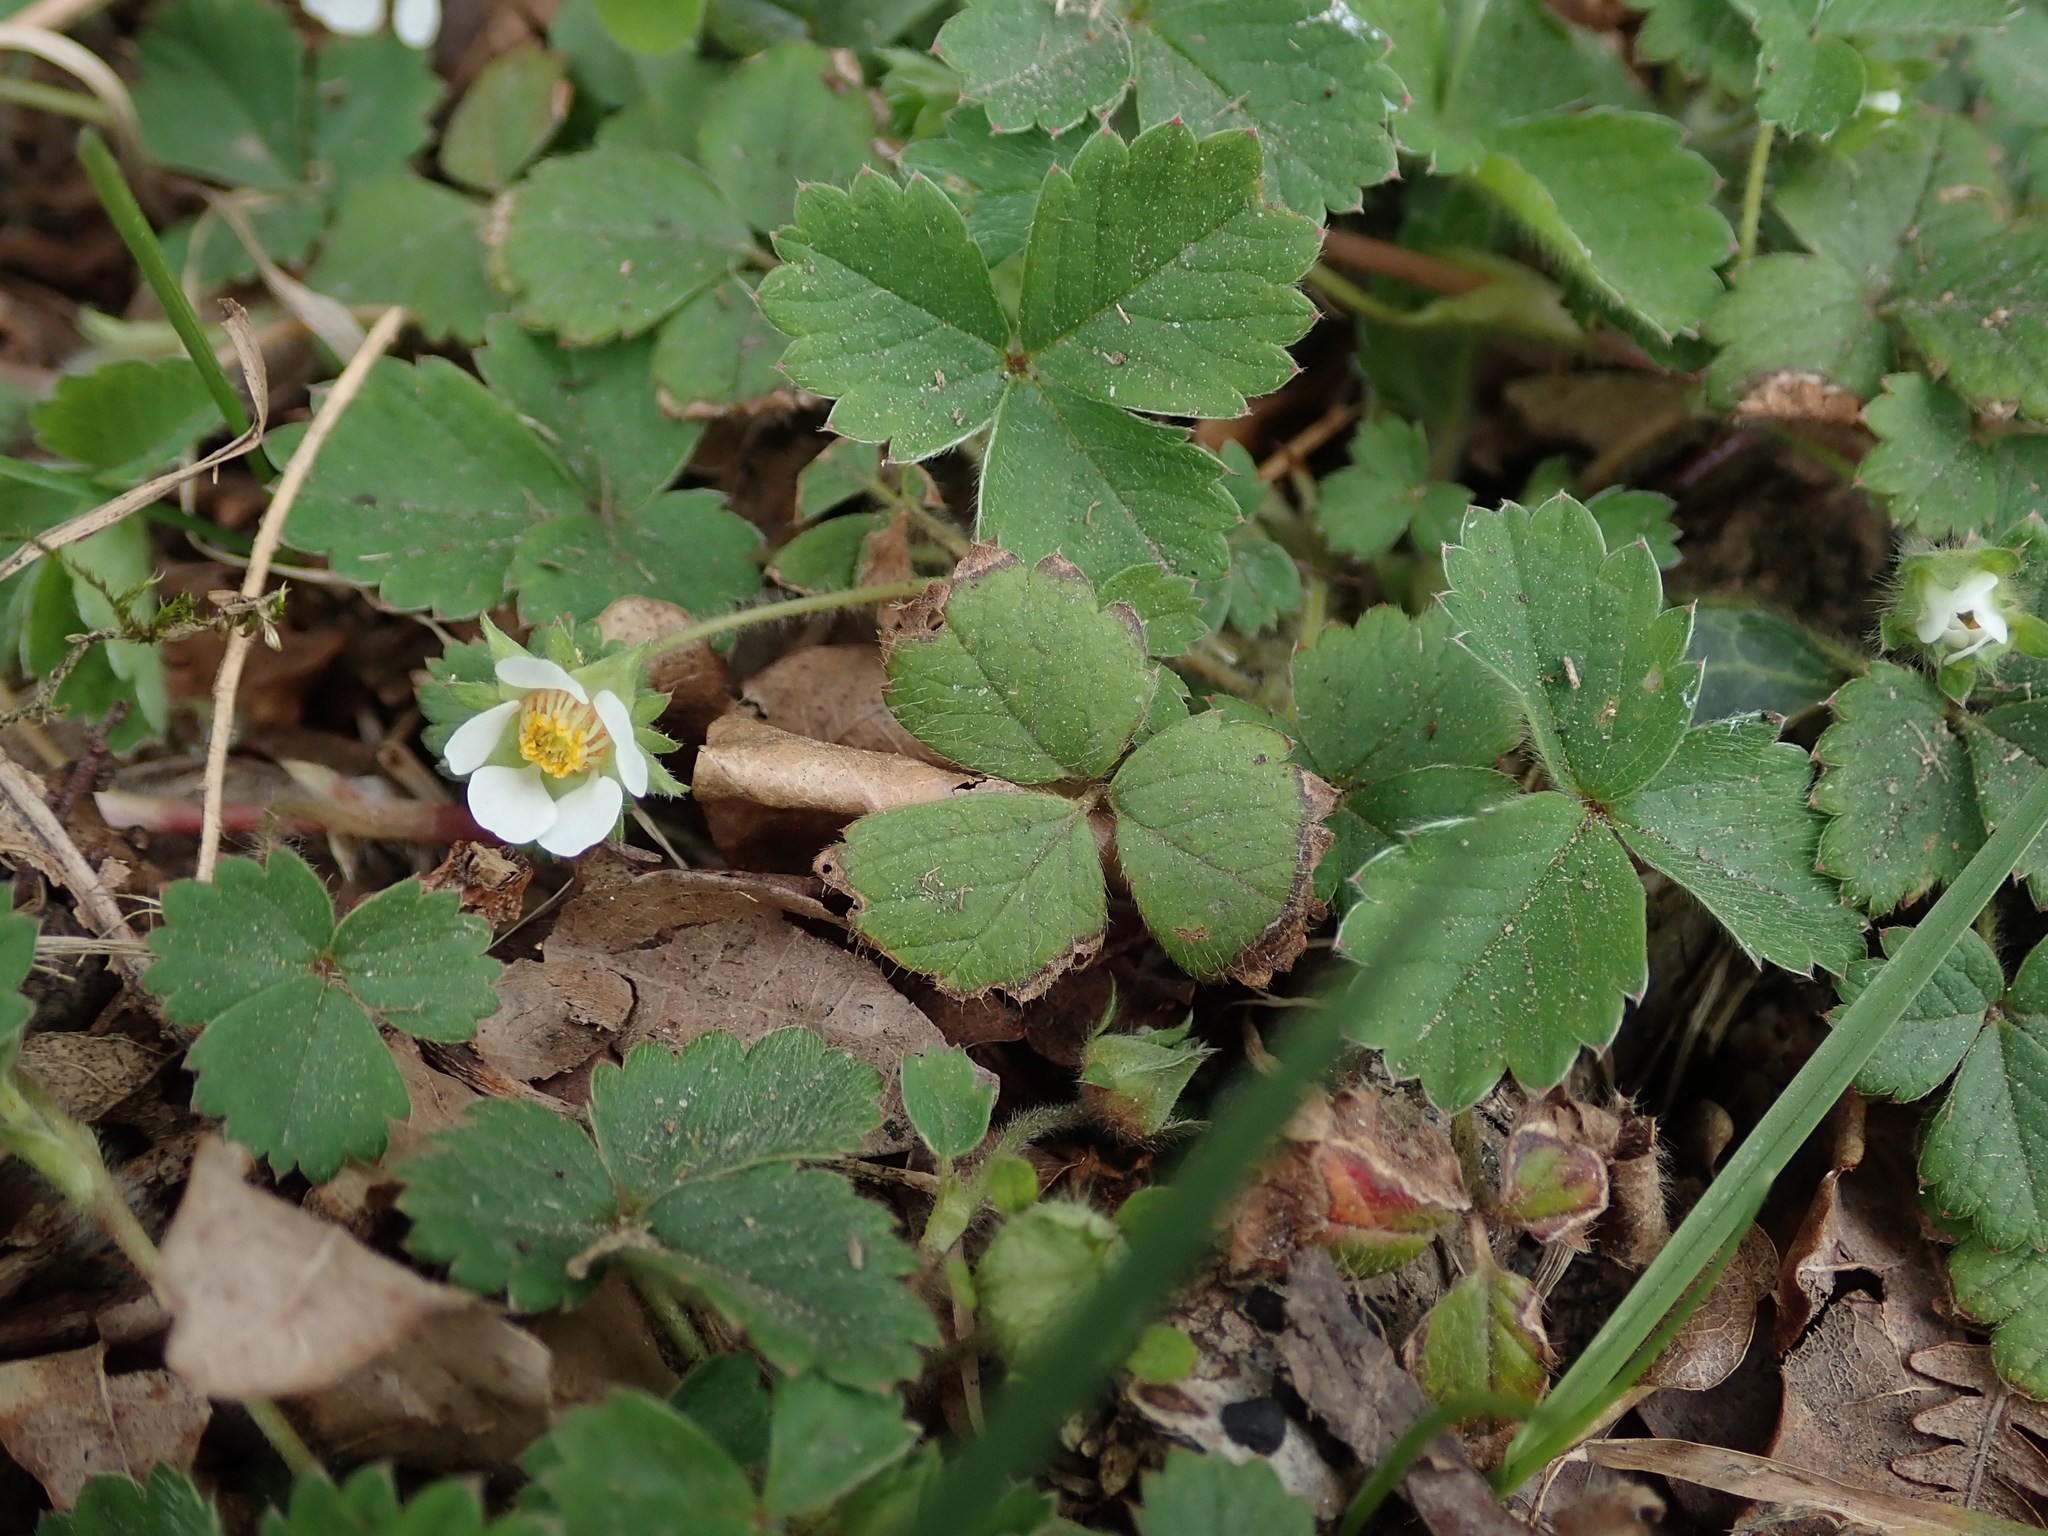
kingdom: Plantae
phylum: Tracheophyta
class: Magnoliopsida
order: Rosales
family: Rosaceae
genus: Potentilla
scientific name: Potentilla sterilis
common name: Barren strawberry
